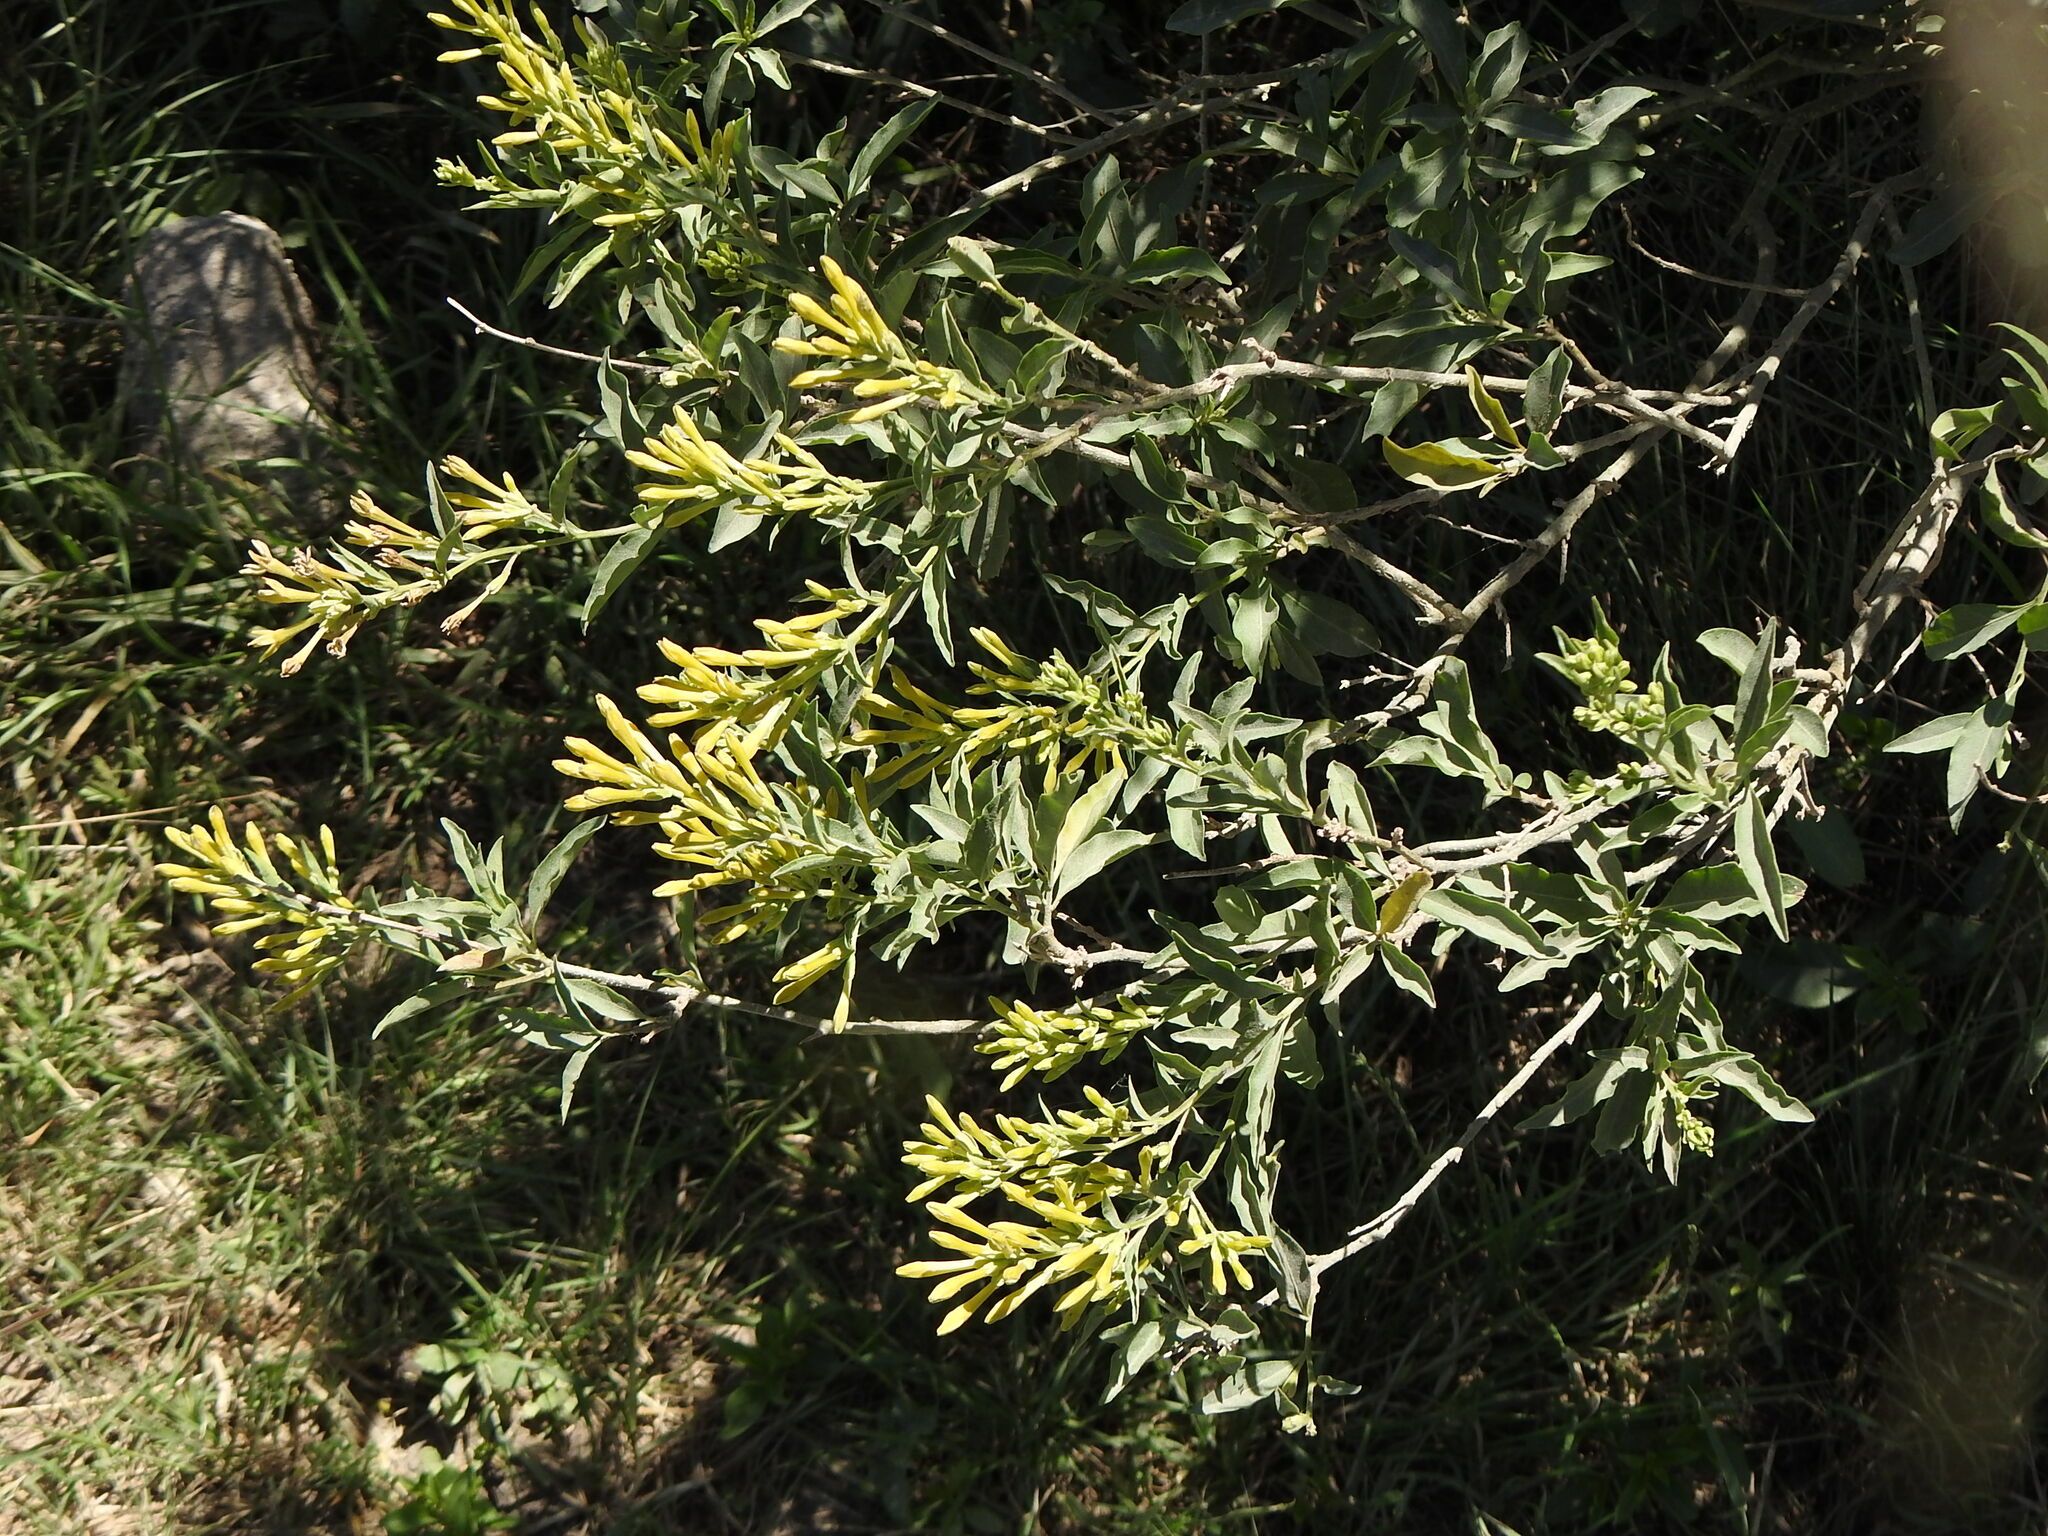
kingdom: Plantae
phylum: Tracheophyta
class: Magnoliopsida
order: Solanales
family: Solanaceae
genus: Cestrum
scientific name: Cestrum parqui
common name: Chilean cestrum
